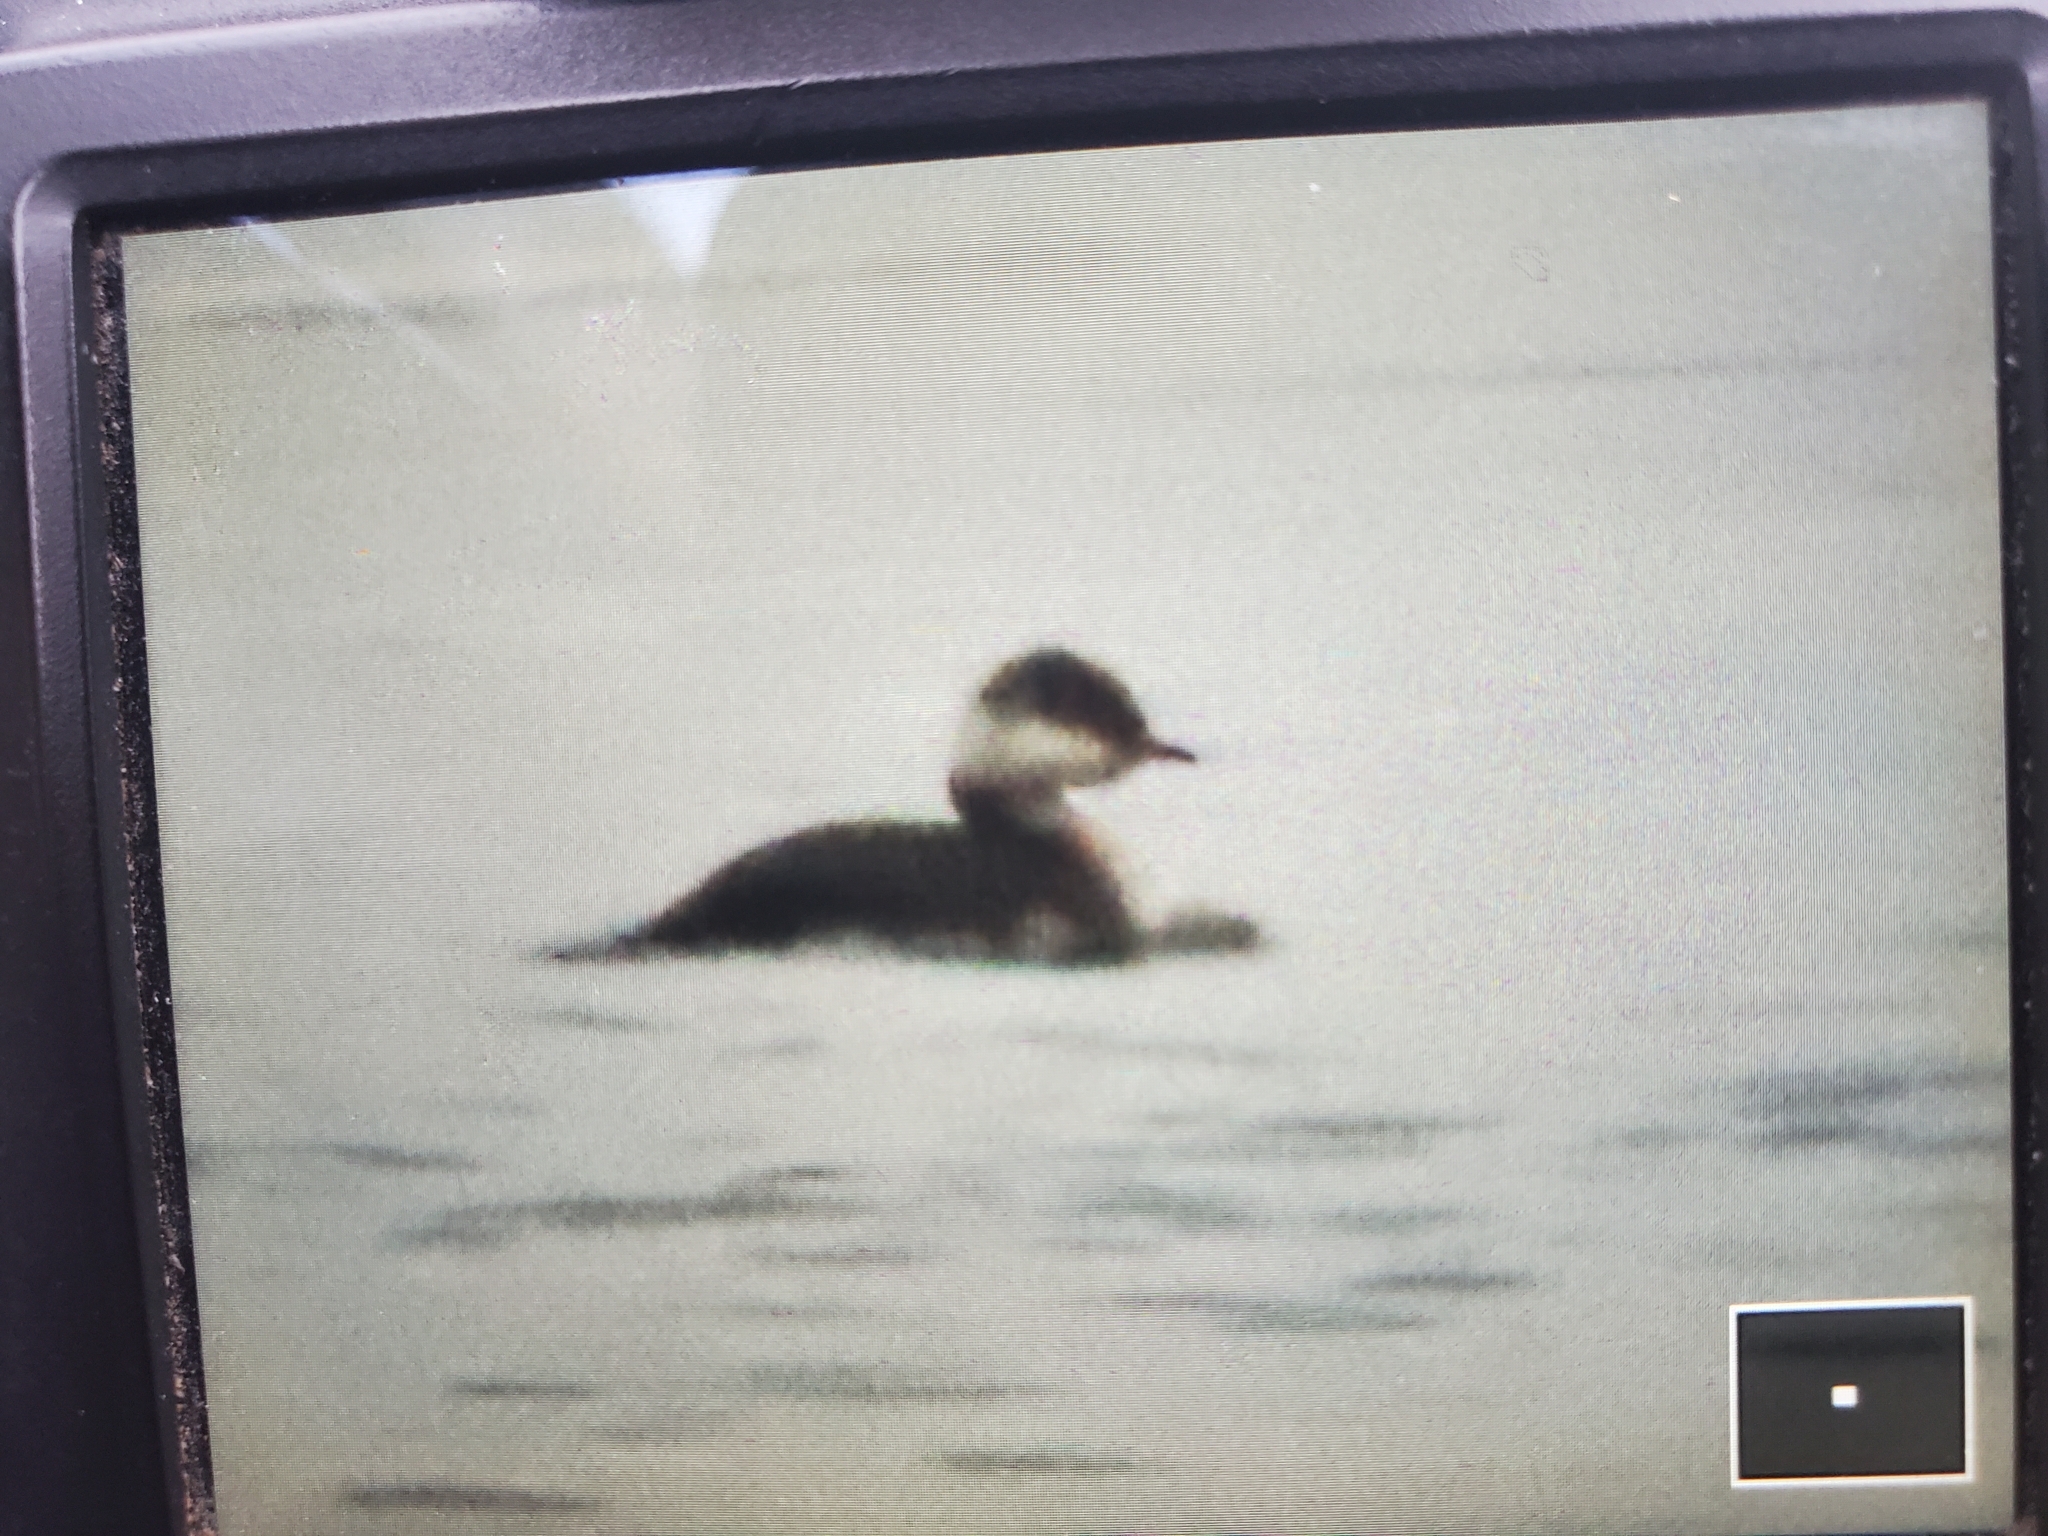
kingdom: Animalia
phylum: Chordata
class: Aves
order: Podicipediformes
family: Podicipedidae
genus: Podiceps
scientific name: Podiceps auritus
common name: Horned grebe
